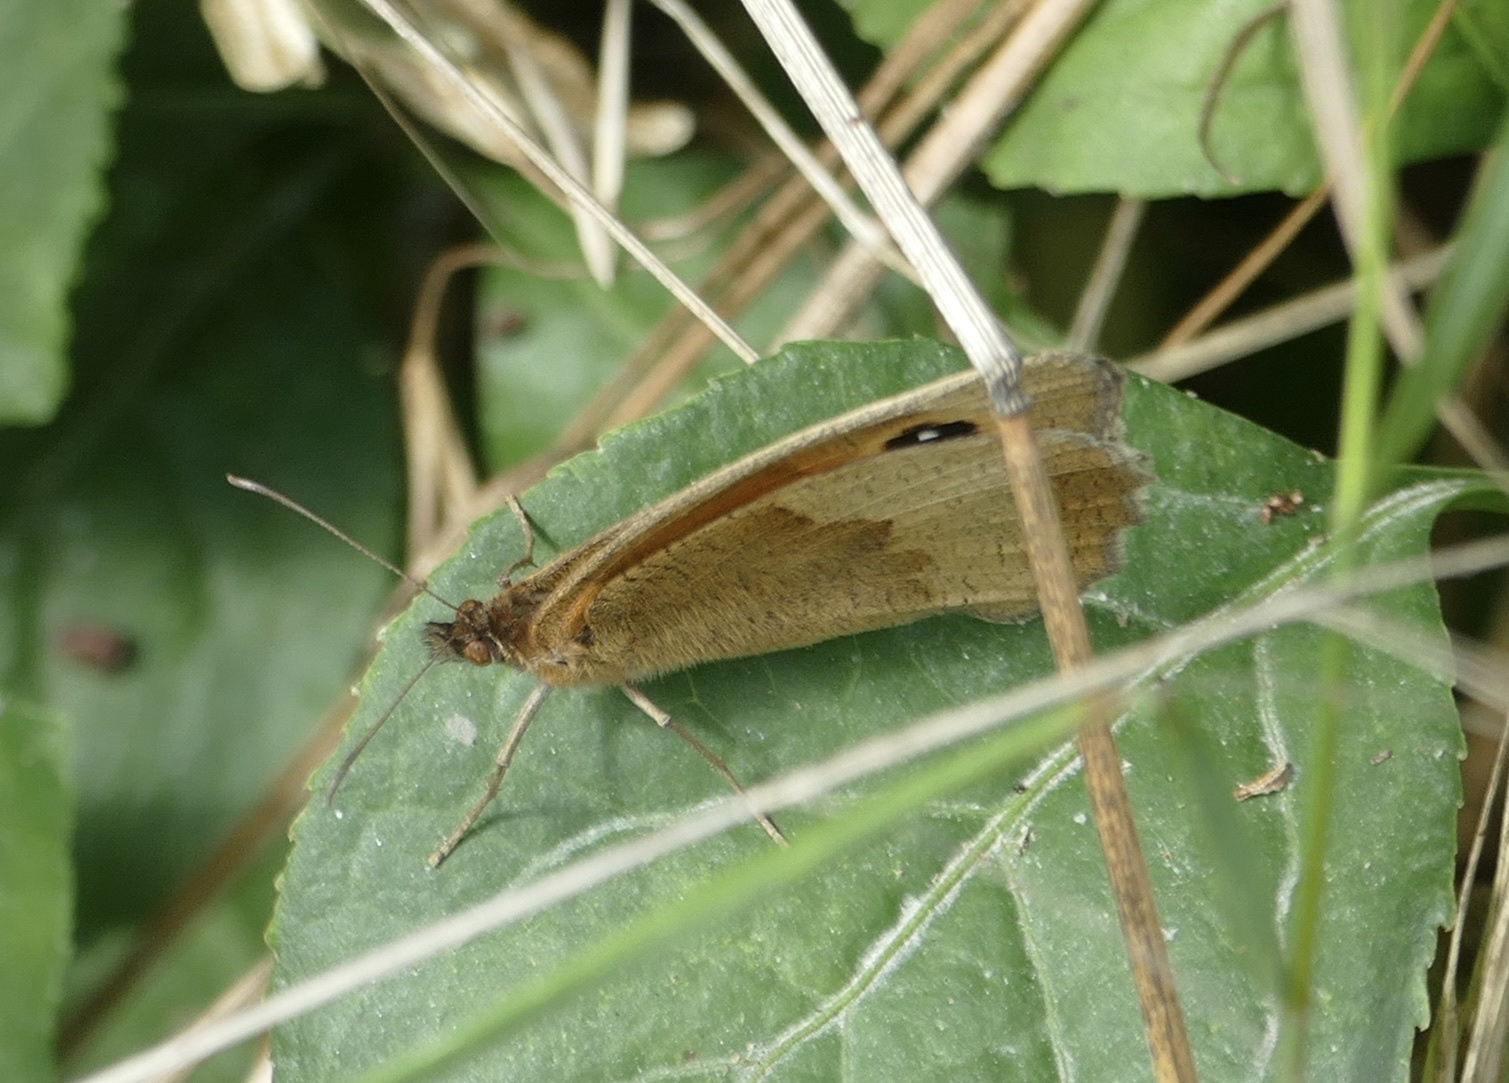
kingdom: Animalia
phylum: Arthropoda
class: Insecta
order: Lepidoptera
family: Nymphalidae
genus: Maniola
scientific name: Maniola jurtina
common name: Meadow brown
